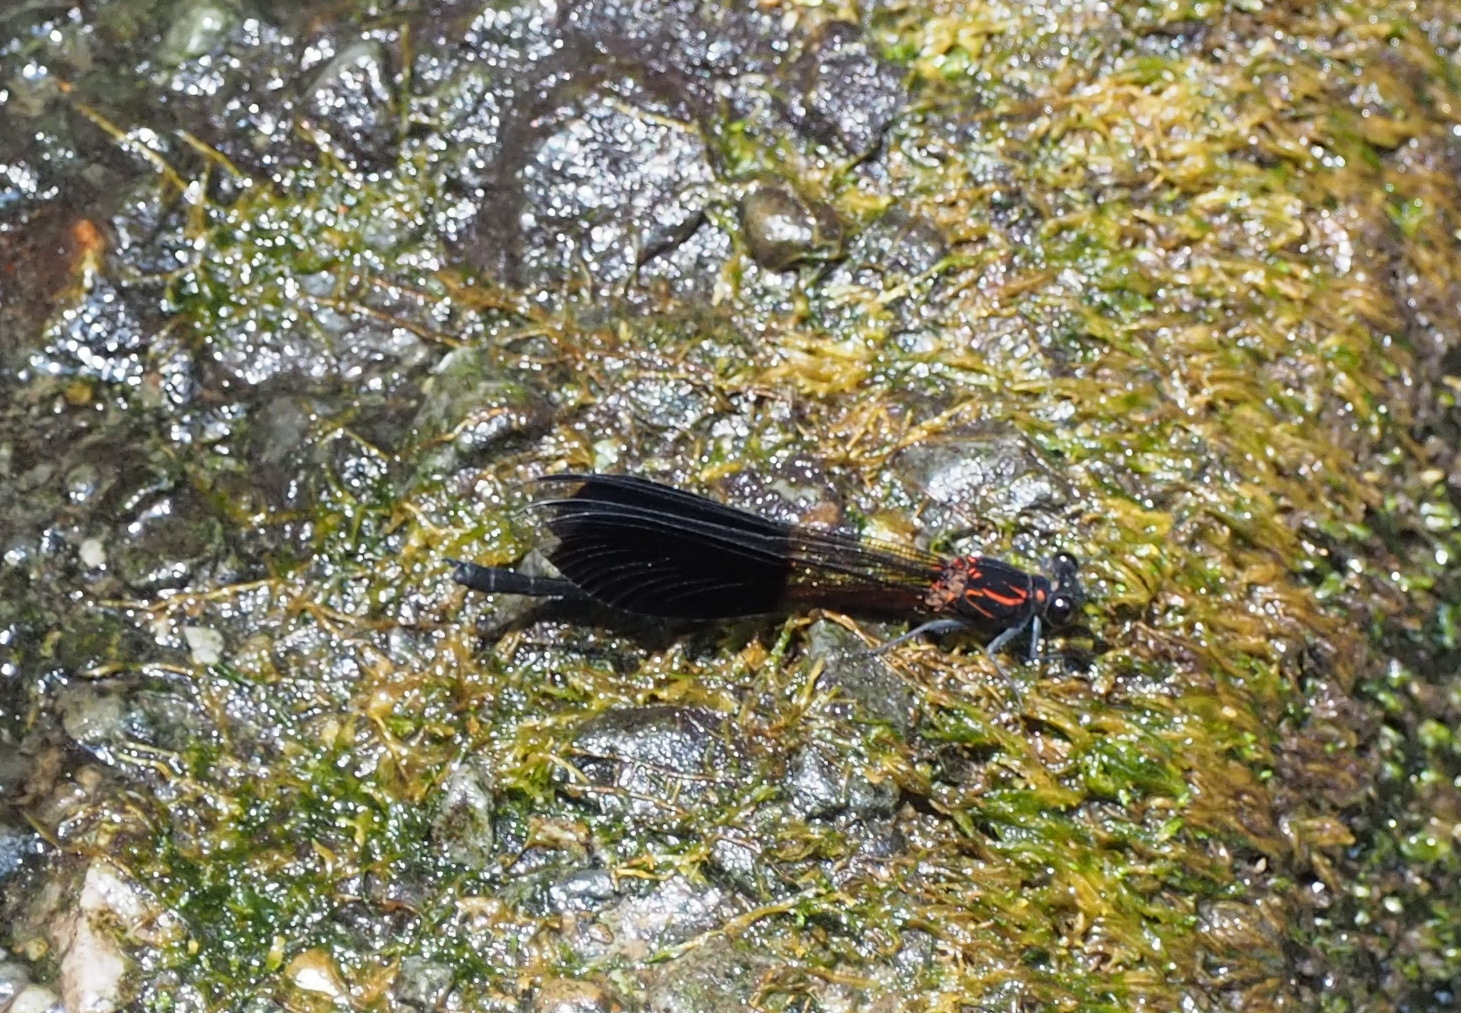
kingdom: Animalia
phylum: Arthropoda
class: Insecta
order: Odonata
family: Euphaeidae
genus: Euphaea
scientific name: Euphaea formosa
